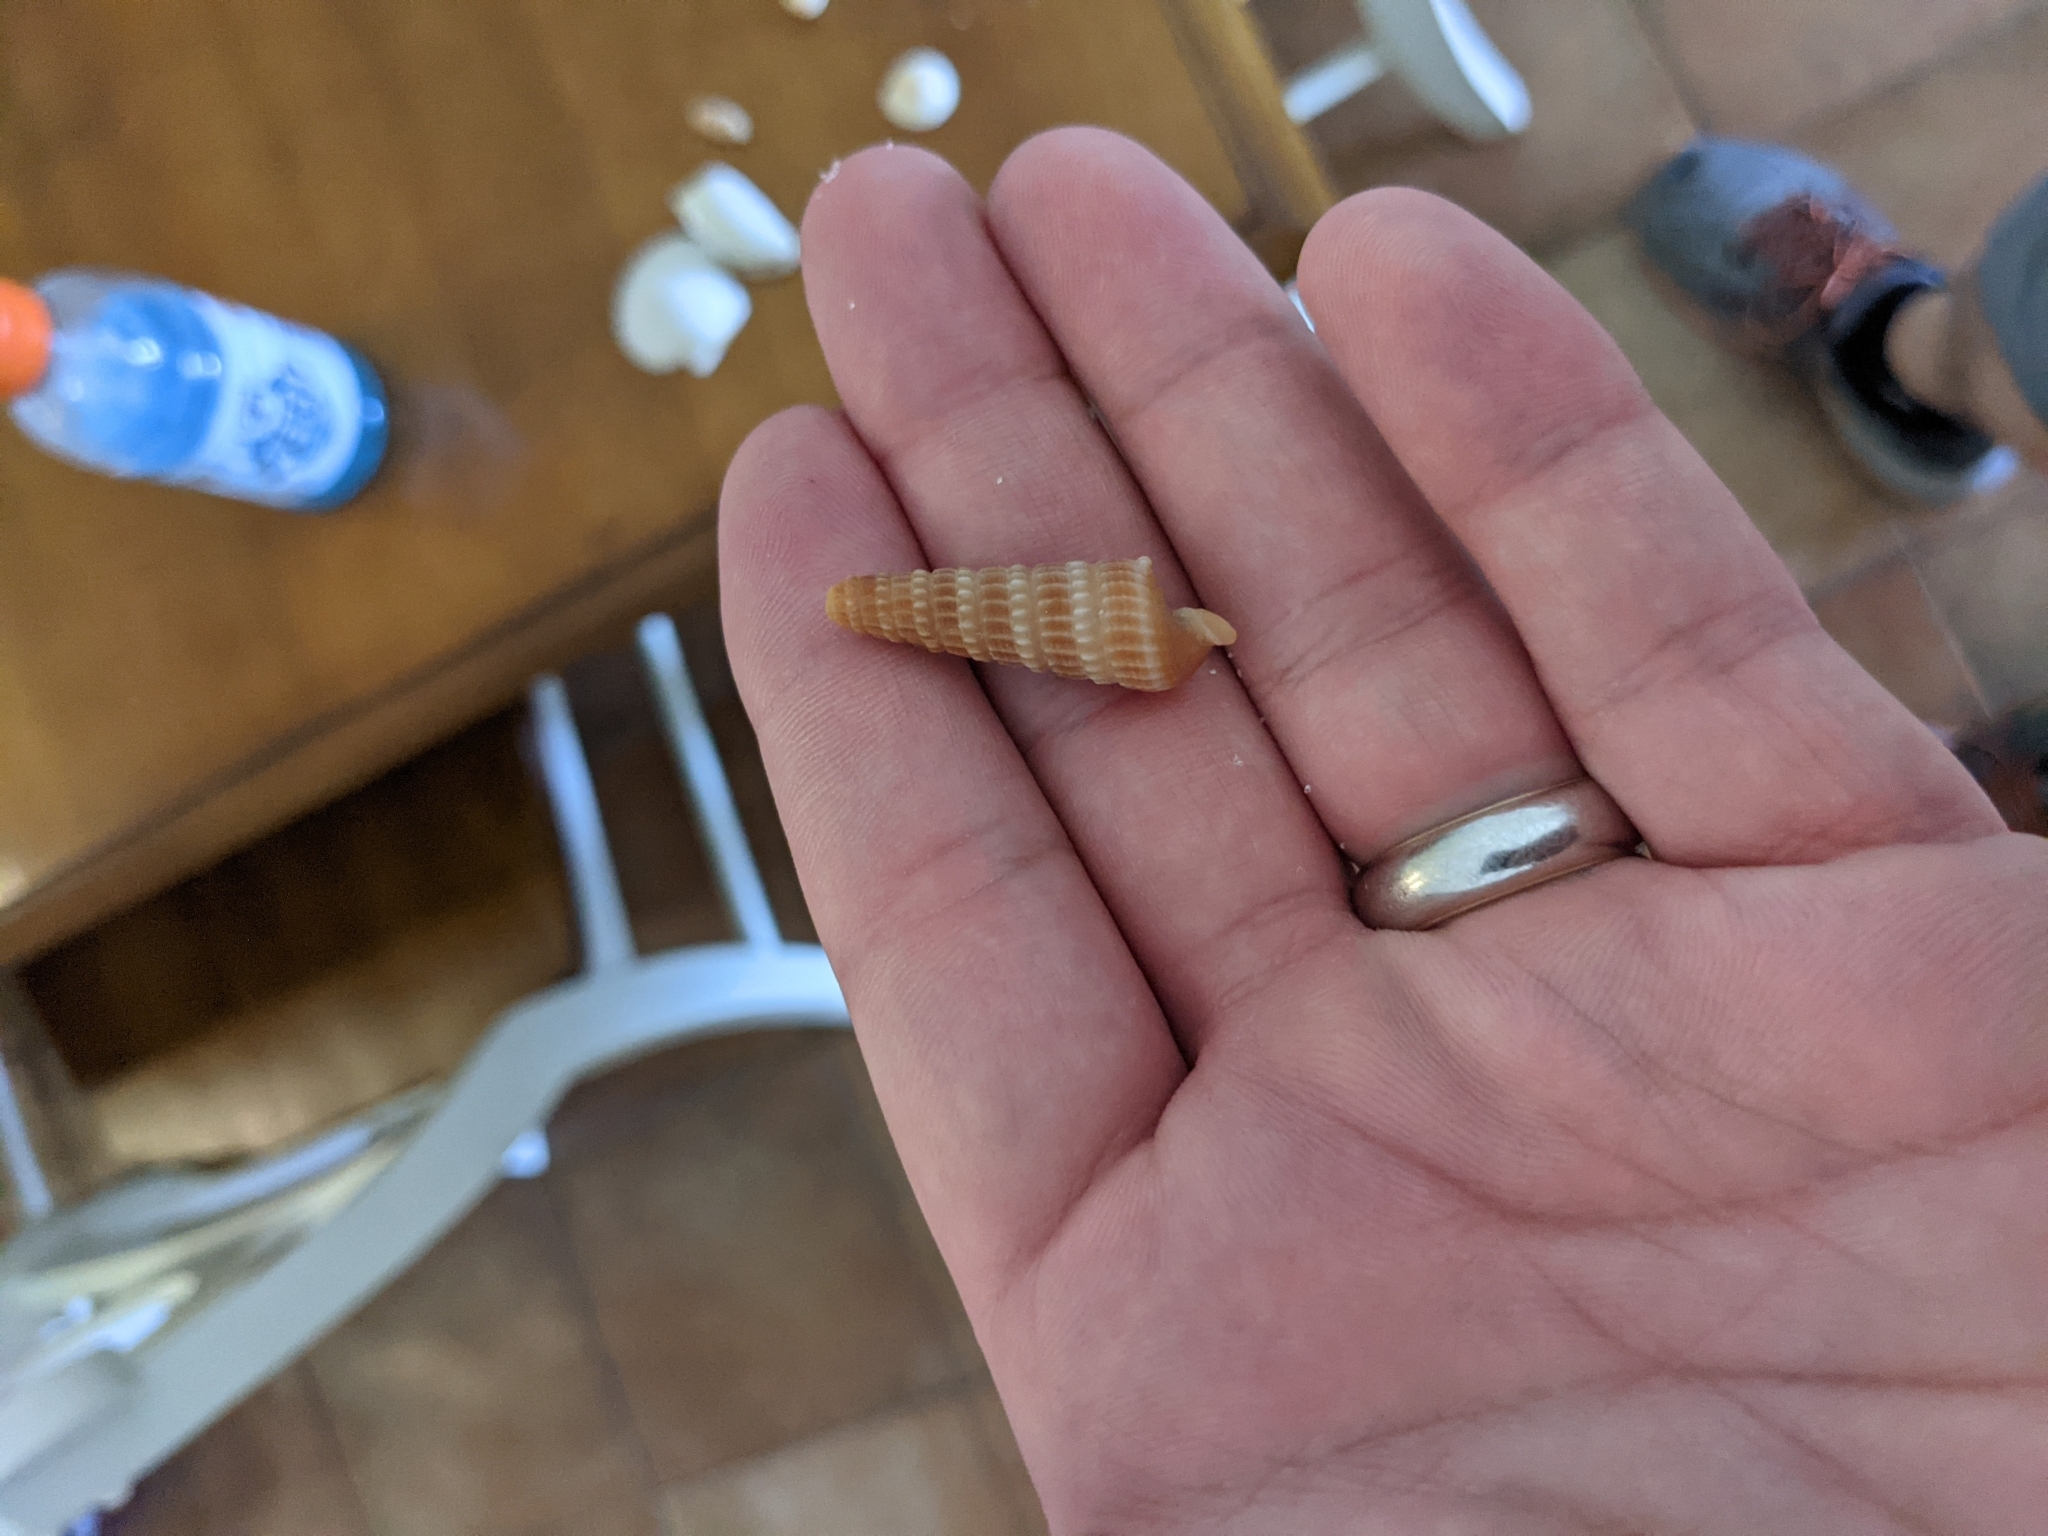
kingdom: Animalia
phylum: Mollusca
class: Gastropoda
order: Neogastropoda
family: Terebridae
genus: Neoterebra
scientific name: Neoterebra dislocata
